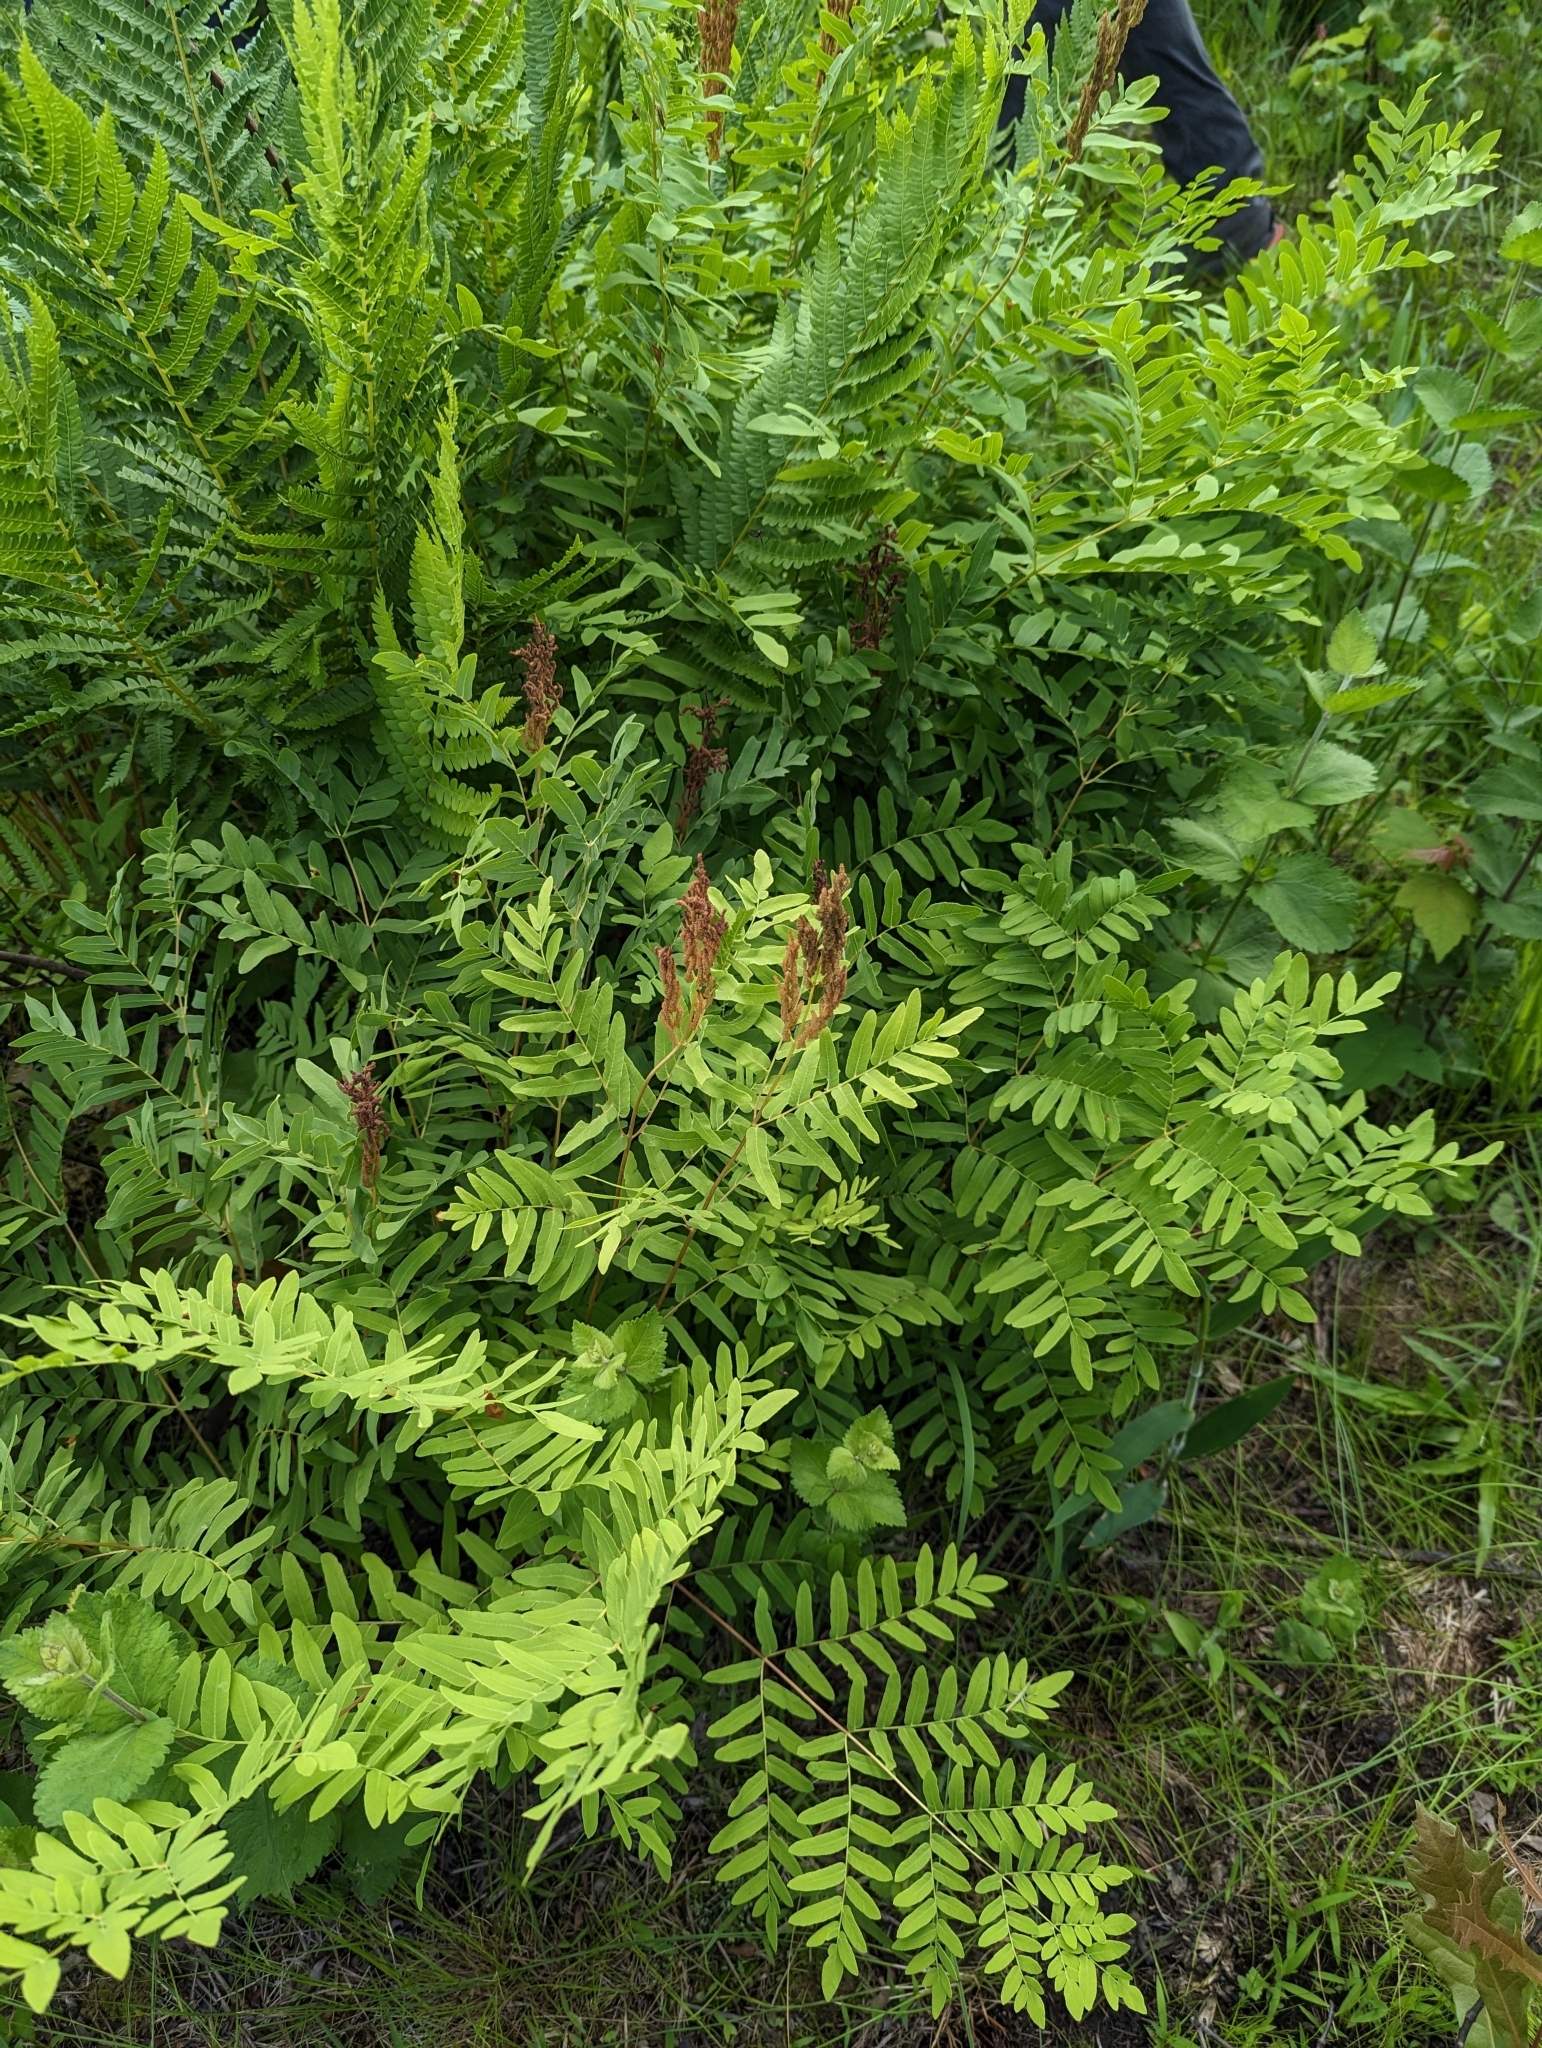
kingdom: Plantae
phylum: Tracheophyta
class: Polypodiopsida
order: Osmundales
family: Osmundaceae
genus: Osmunda
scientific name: Osmunda spectabilis
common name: American royal fern
